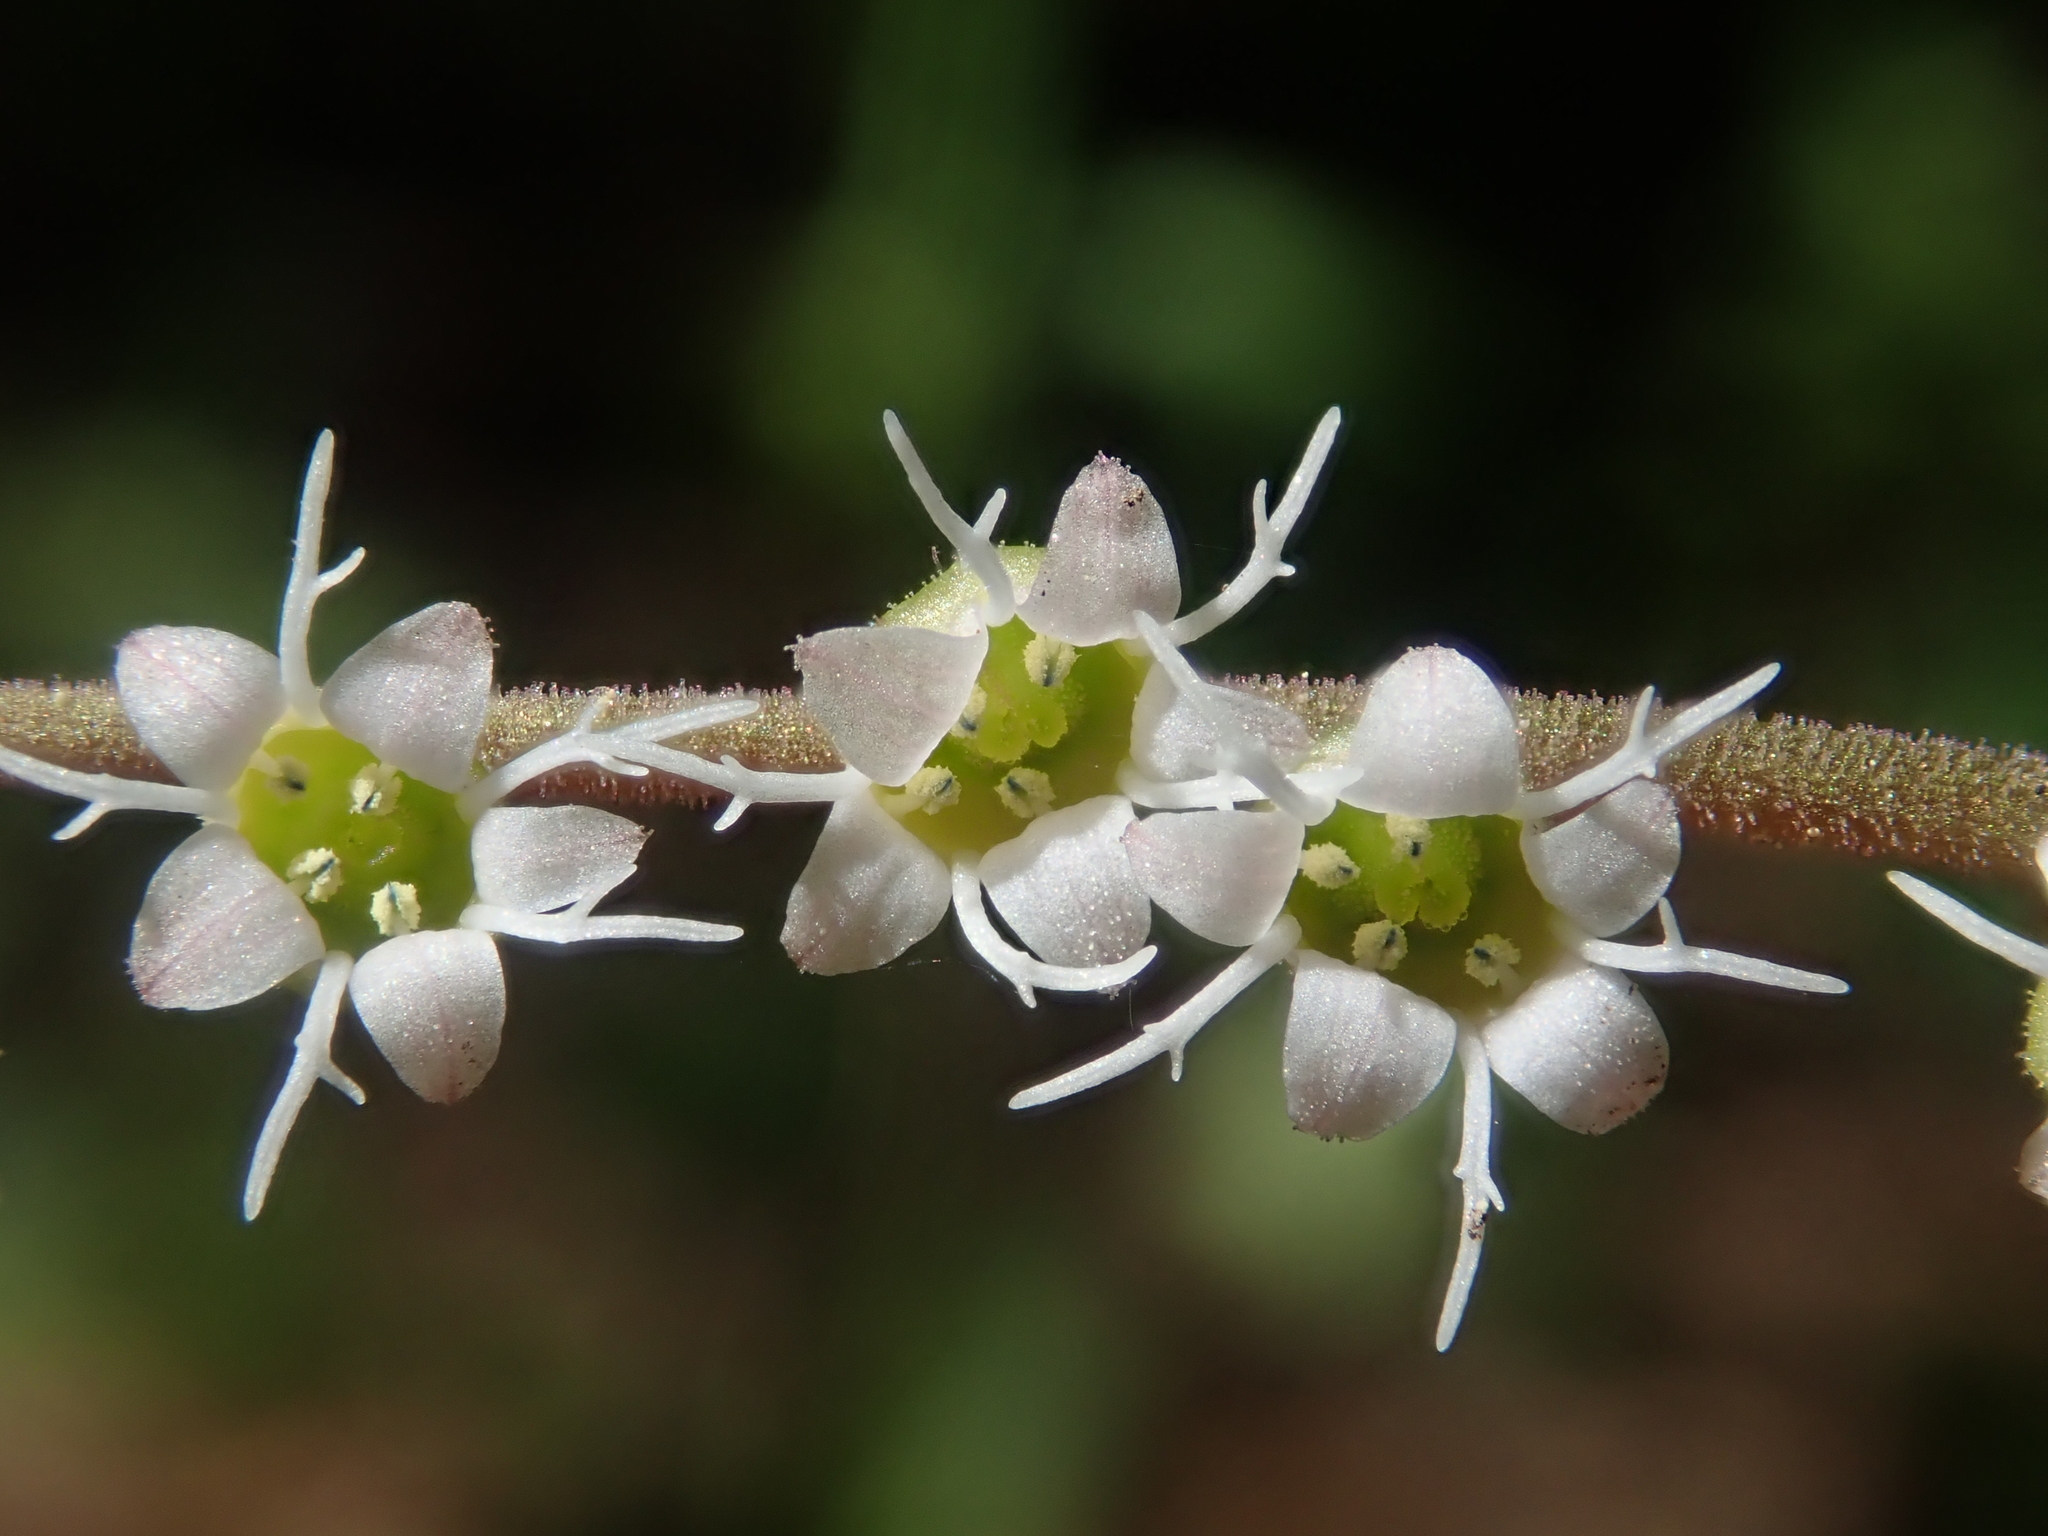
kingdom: Plantae
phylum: Tracheophyta
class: Magnoliopsida
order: Saxifragales
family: Saxifragaceae
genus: Ozomelis
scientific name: Ozomelis stauropetala
